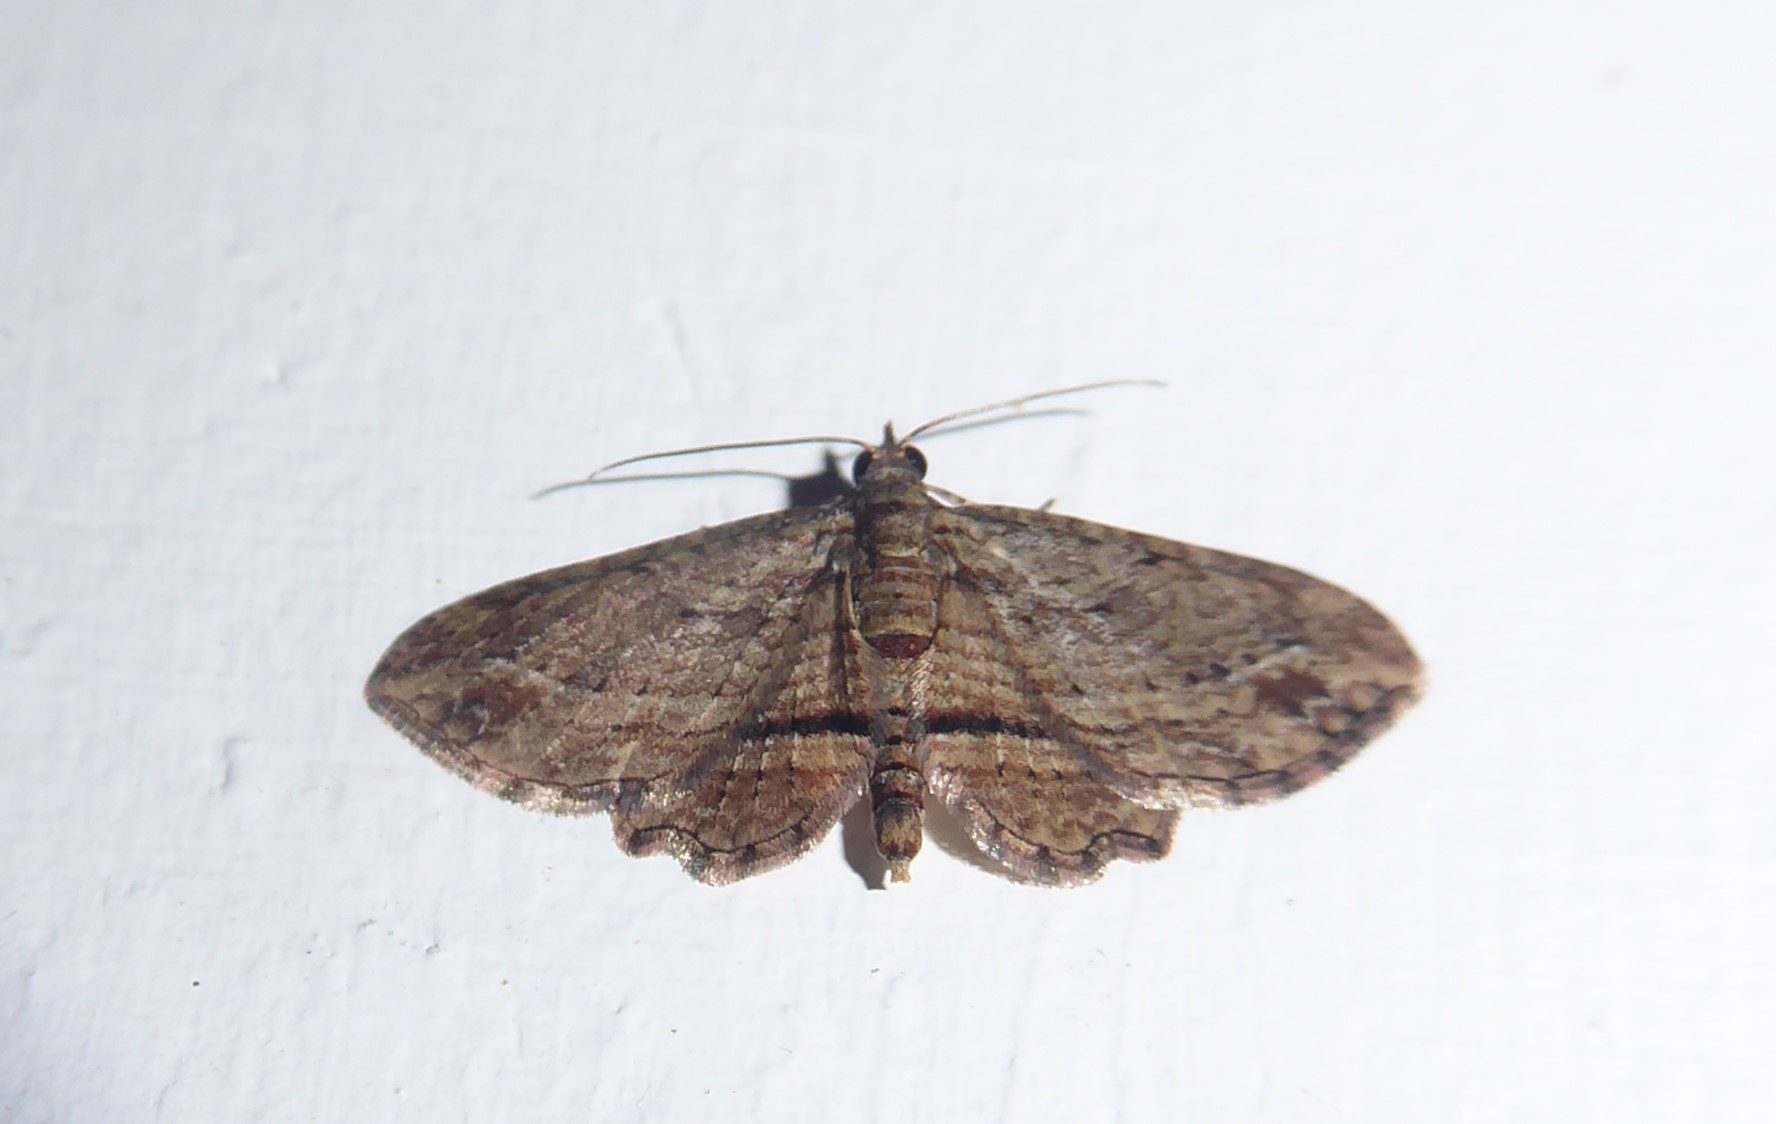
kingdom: Animalia
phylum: Arthropoda
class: Insecta
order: Lepidoptera
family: Geometridae
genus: Chloroclystis
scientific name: Chloroclystis filata
